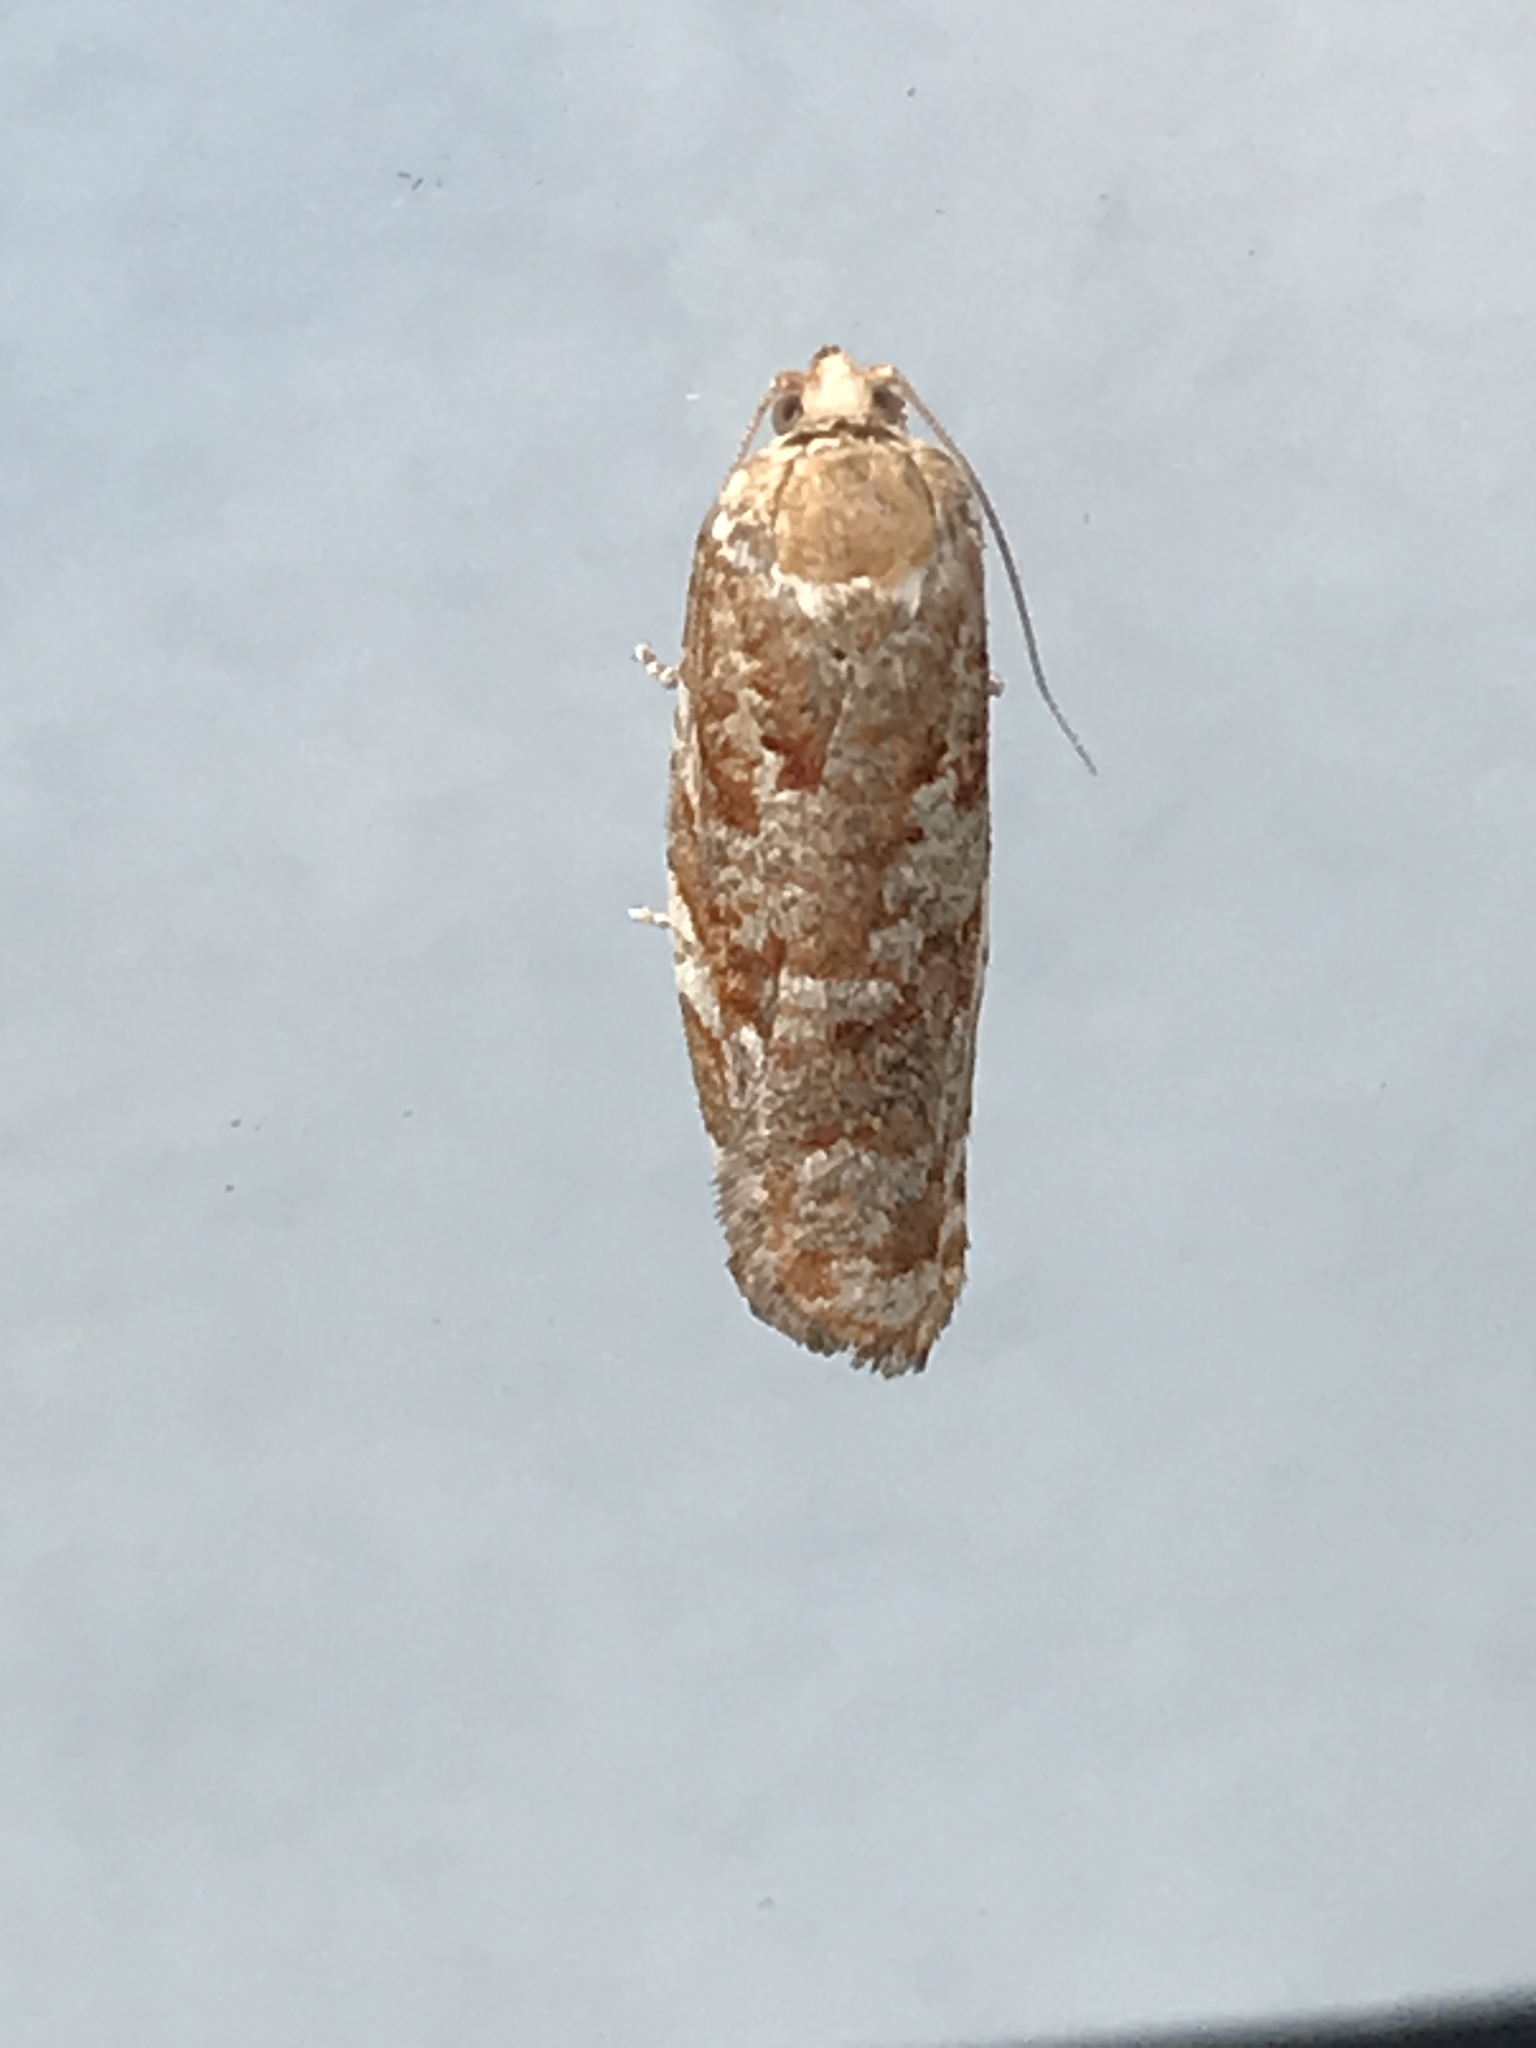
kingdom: Animalia
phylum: Arthropoda
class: Insecta
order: Lepidoptera
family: Tortricidae
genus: Choristoneura
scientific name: Choristoneura pinus
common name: Jack pine budworm
